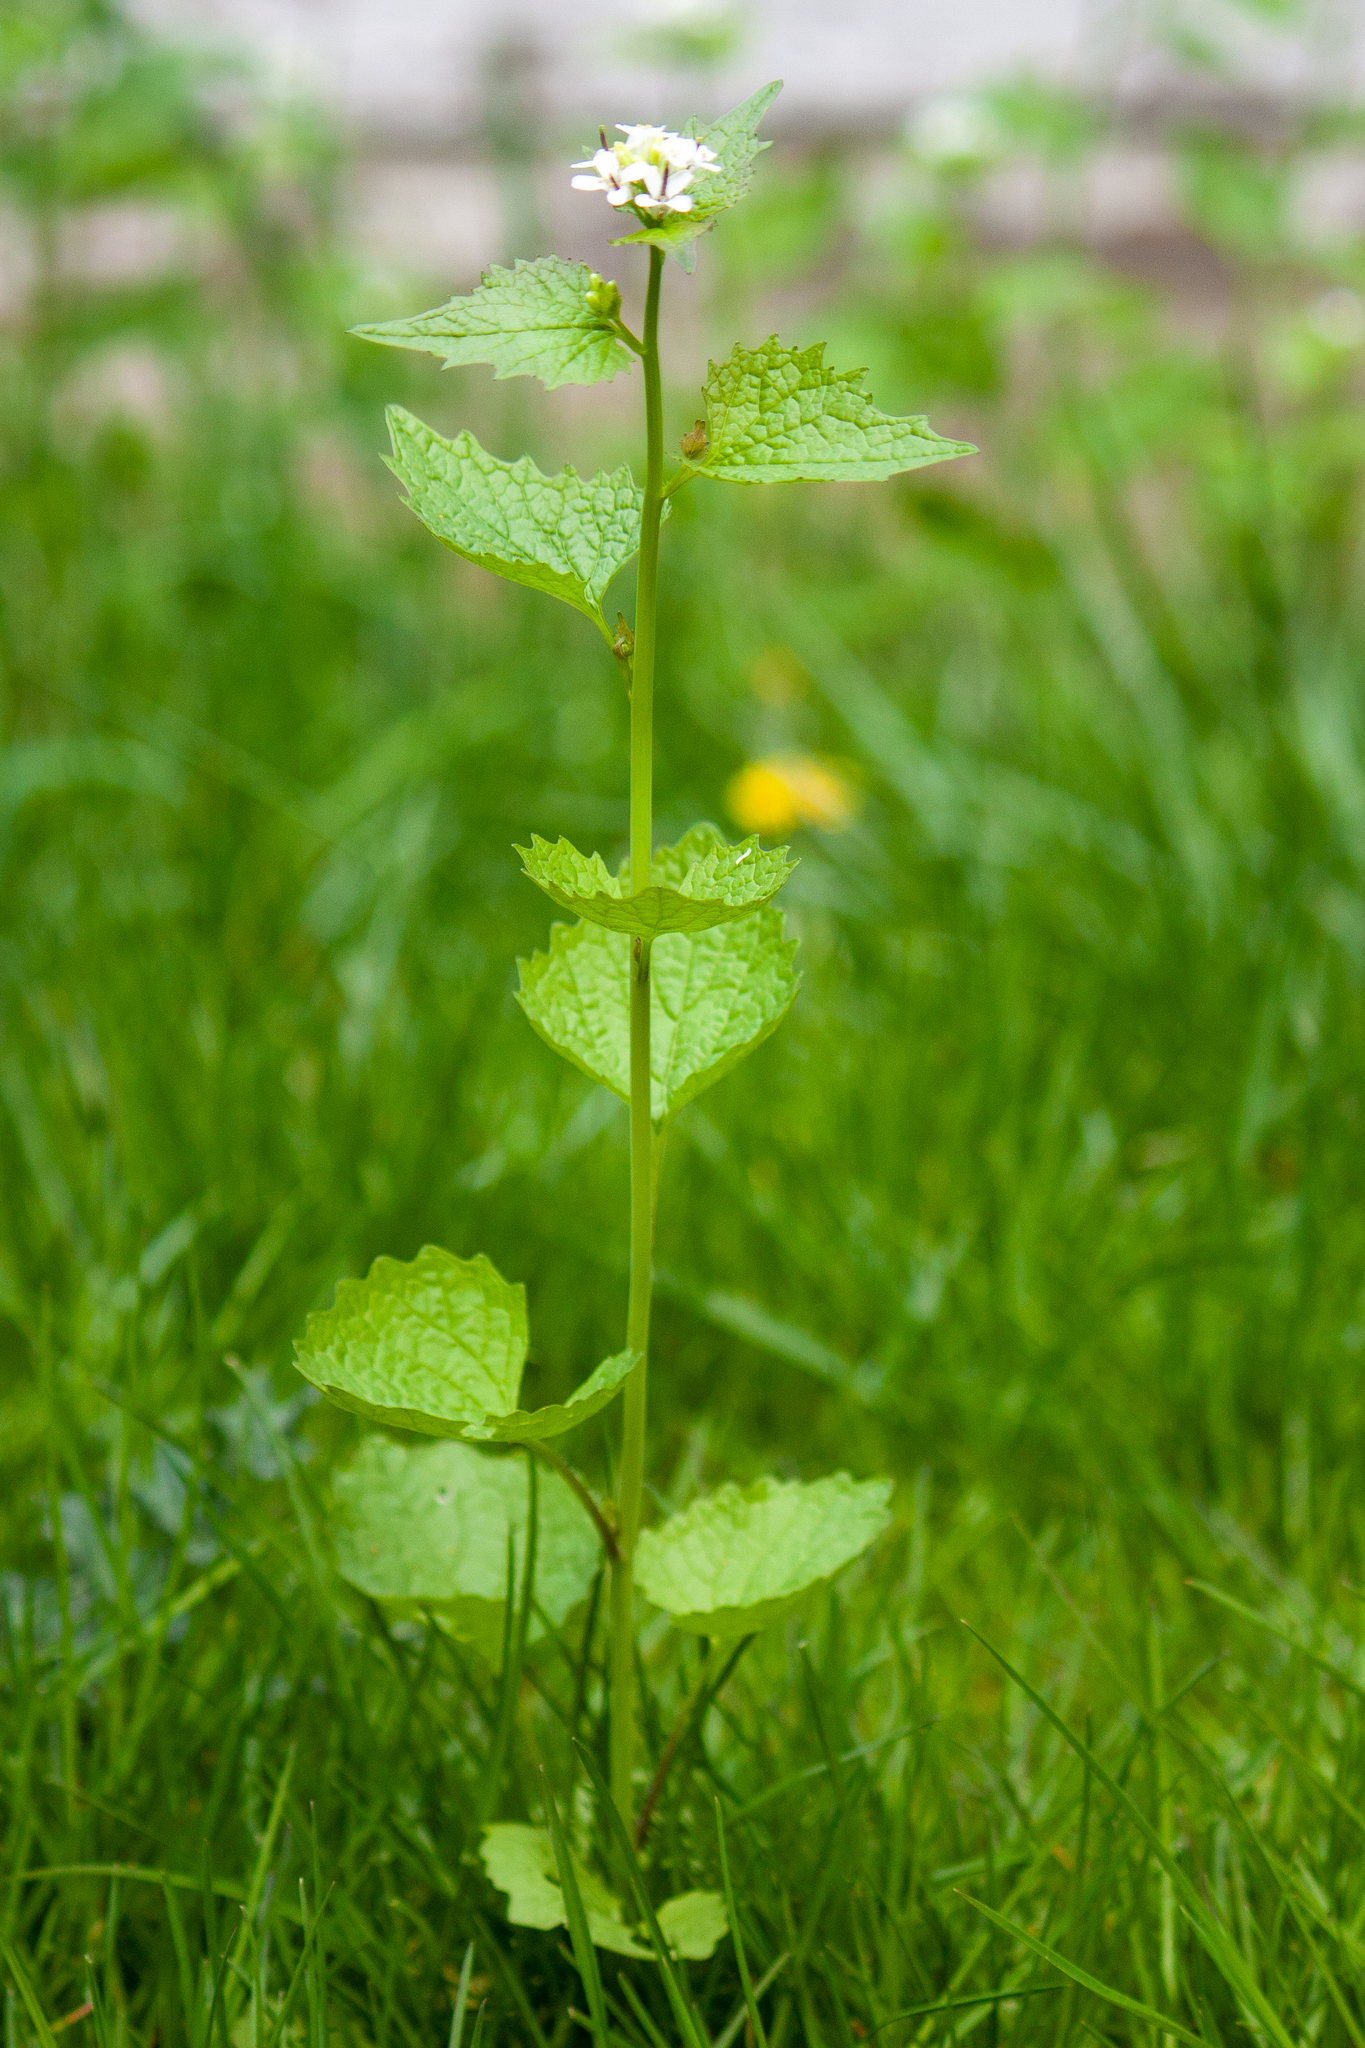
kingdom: Plantae
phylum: Tracheophyta
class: Magnoliopsida
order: Brassicales
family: Brassicaceae
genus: Alliaria
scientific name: Alliaria petiolata
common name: Garlic mustard
